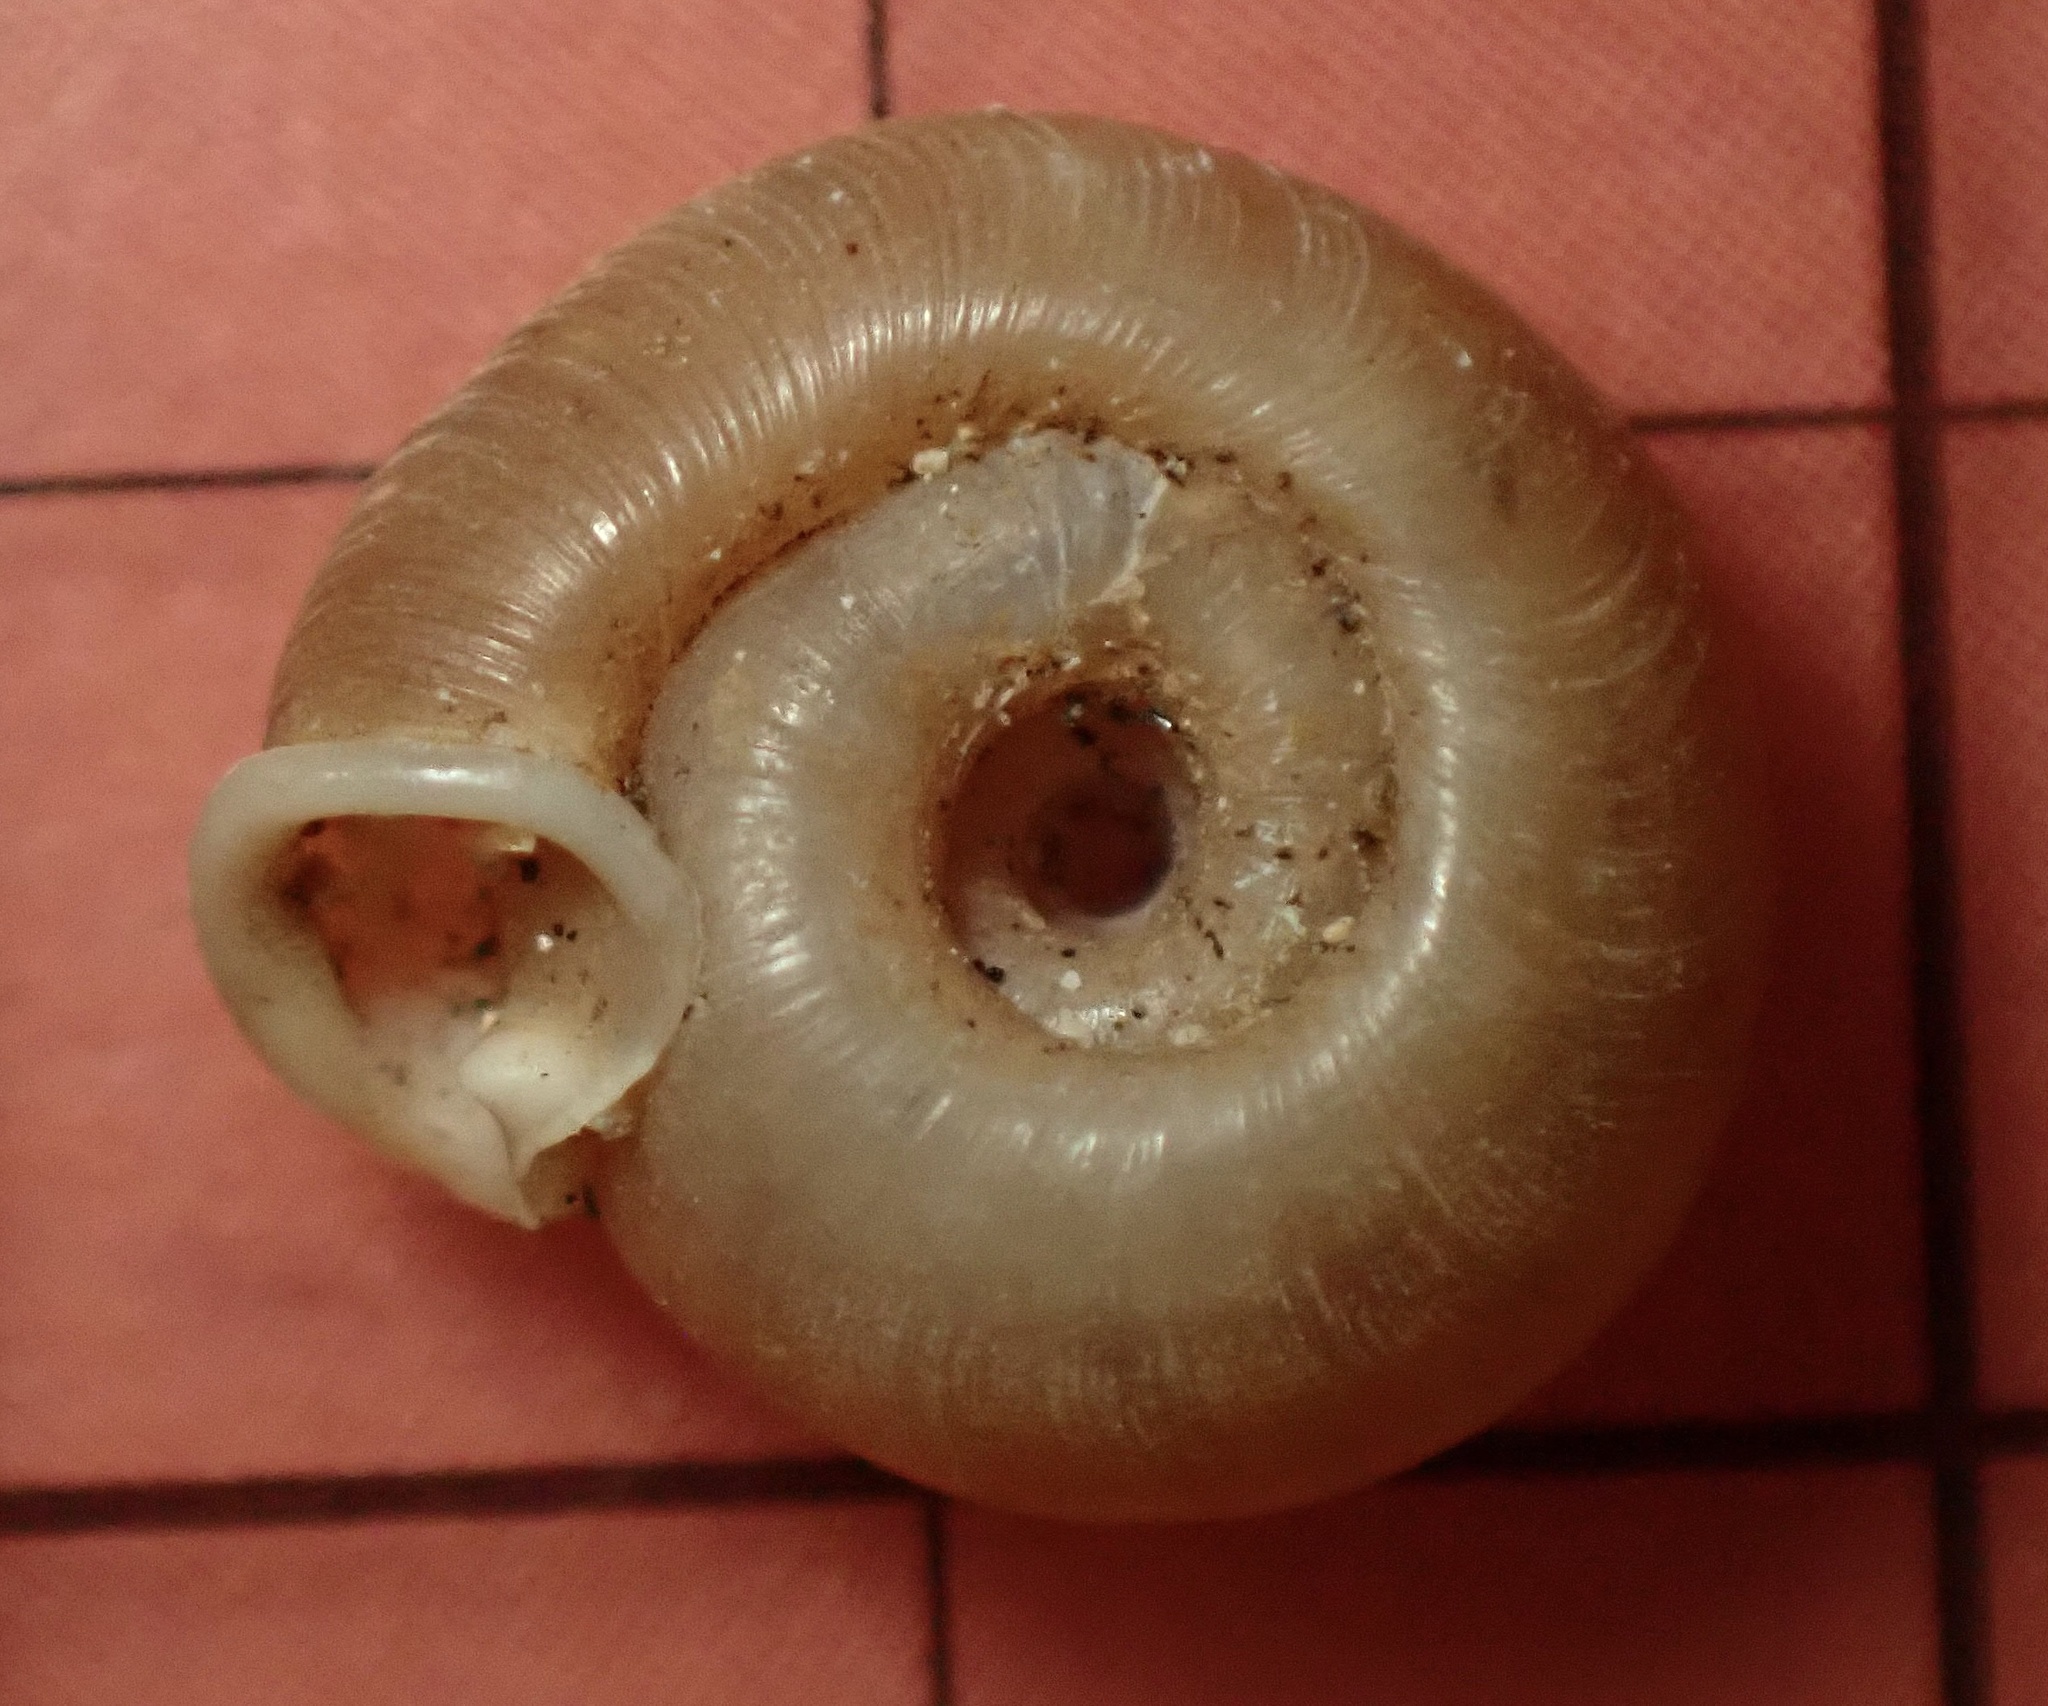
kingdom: Animalia
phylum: Mollusca
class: Gastropoda
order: Stylommatophora
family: Polygyridae
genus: Polygyra
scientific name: Polygyra cereolus
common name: Southern flatcone snail
